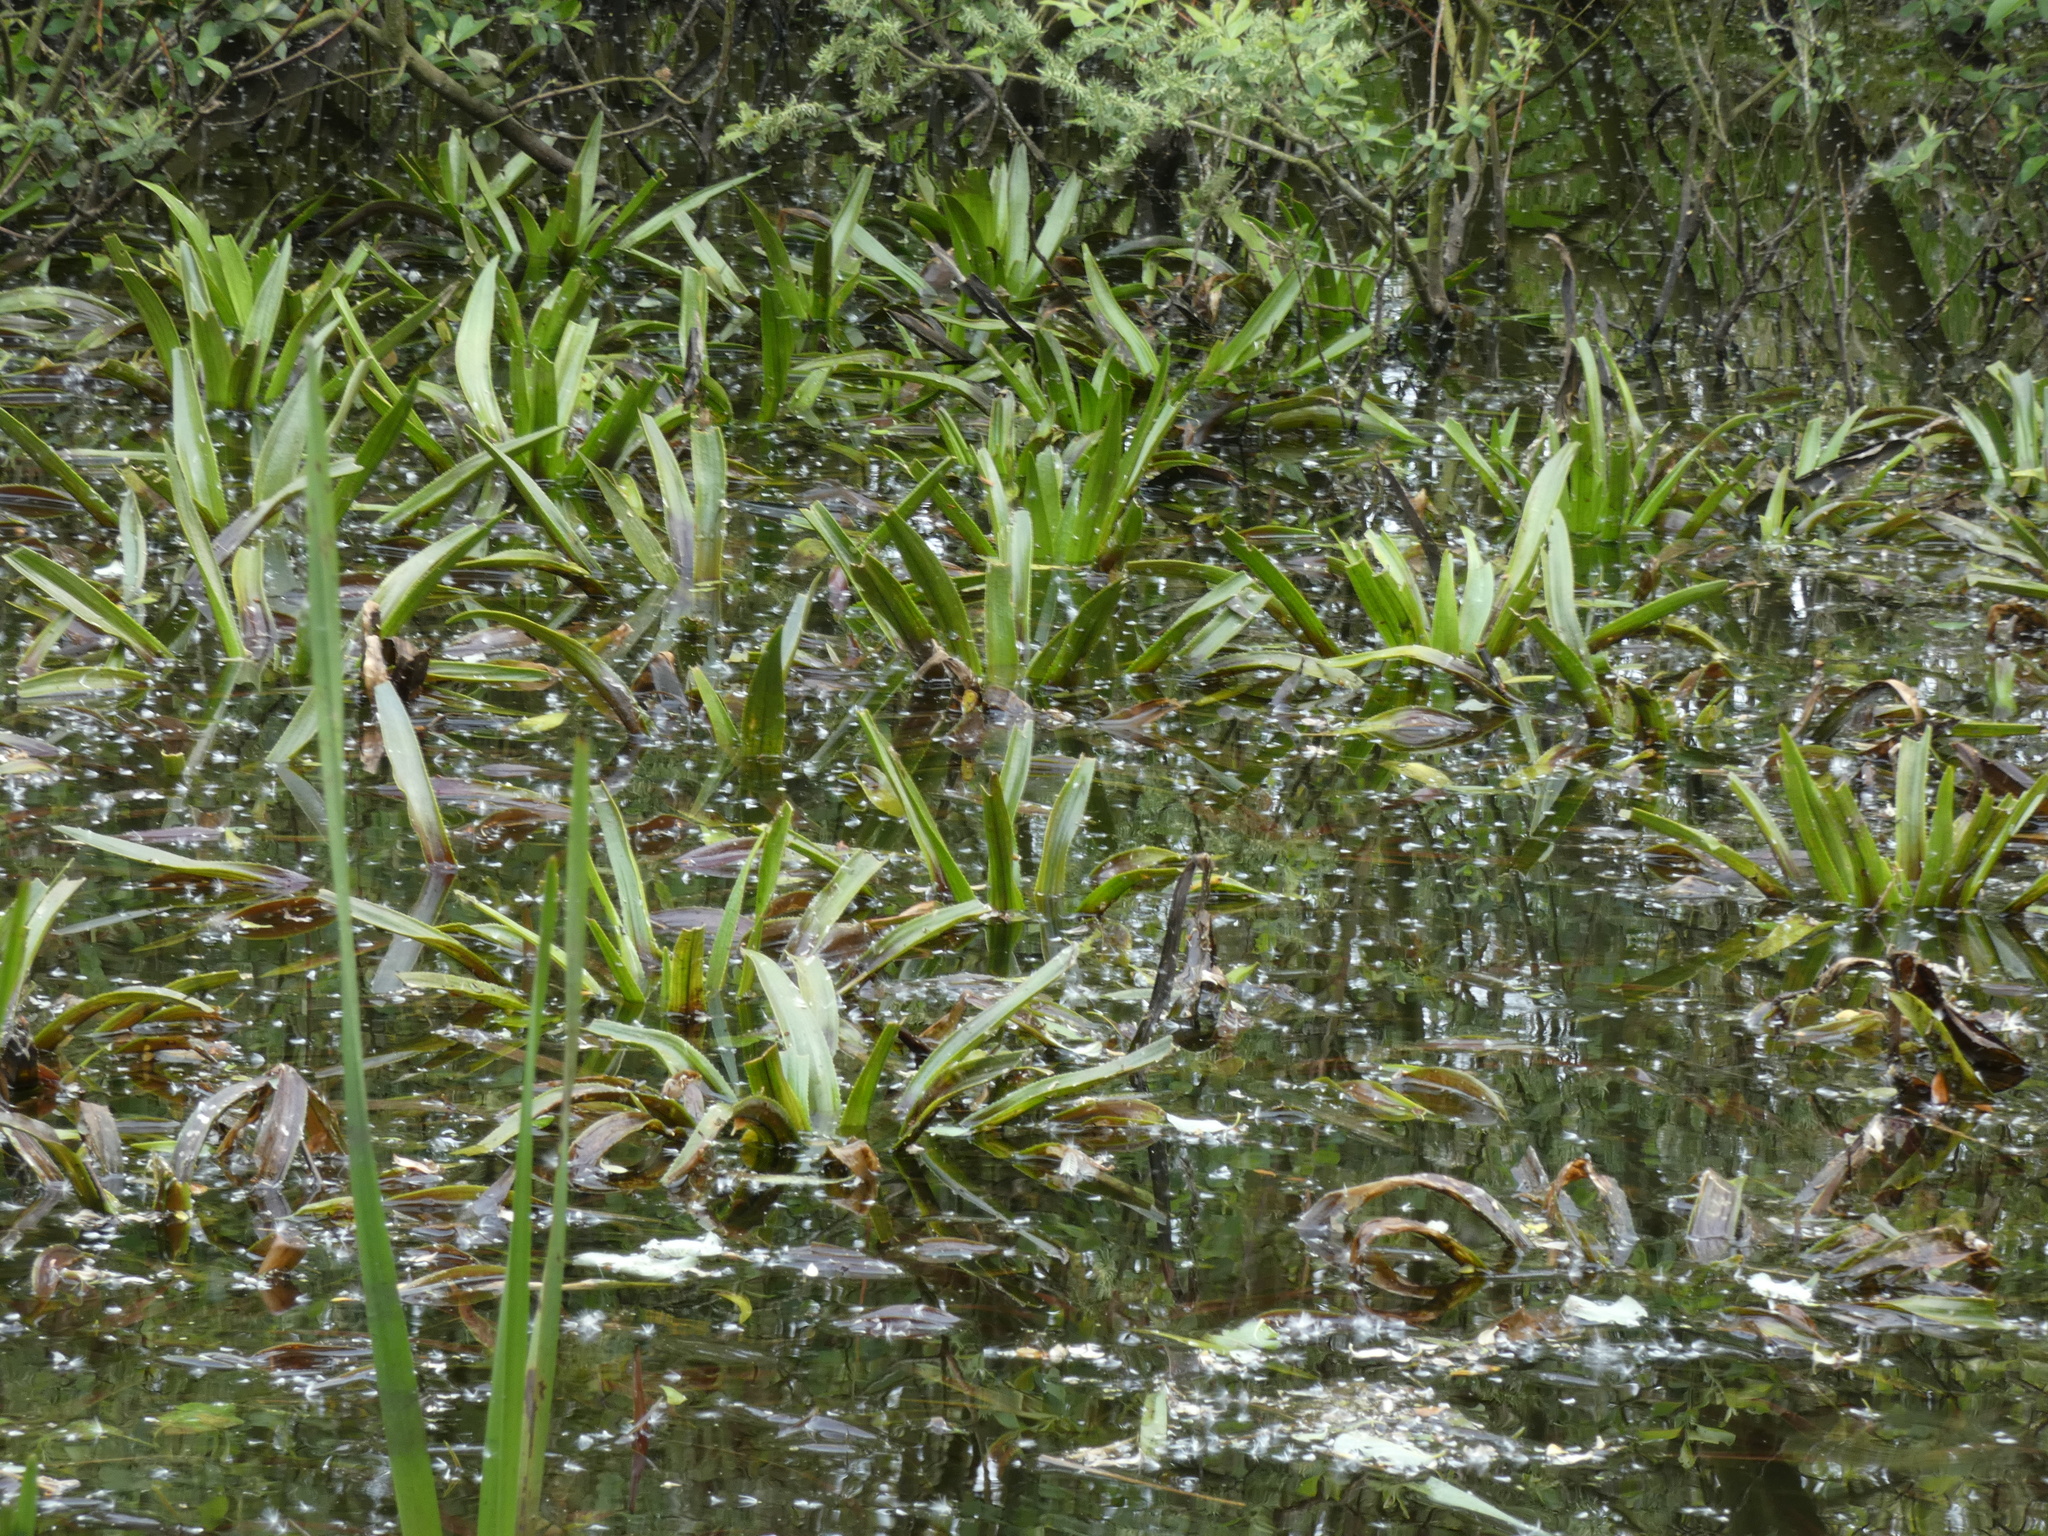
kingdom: Plantae
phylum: Tracheophyta
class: Liliopsida
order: Alismatales
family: Hydrocharitaceae
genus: Stratiotes
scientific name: Stratiotes aloides
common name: Water-soldier
